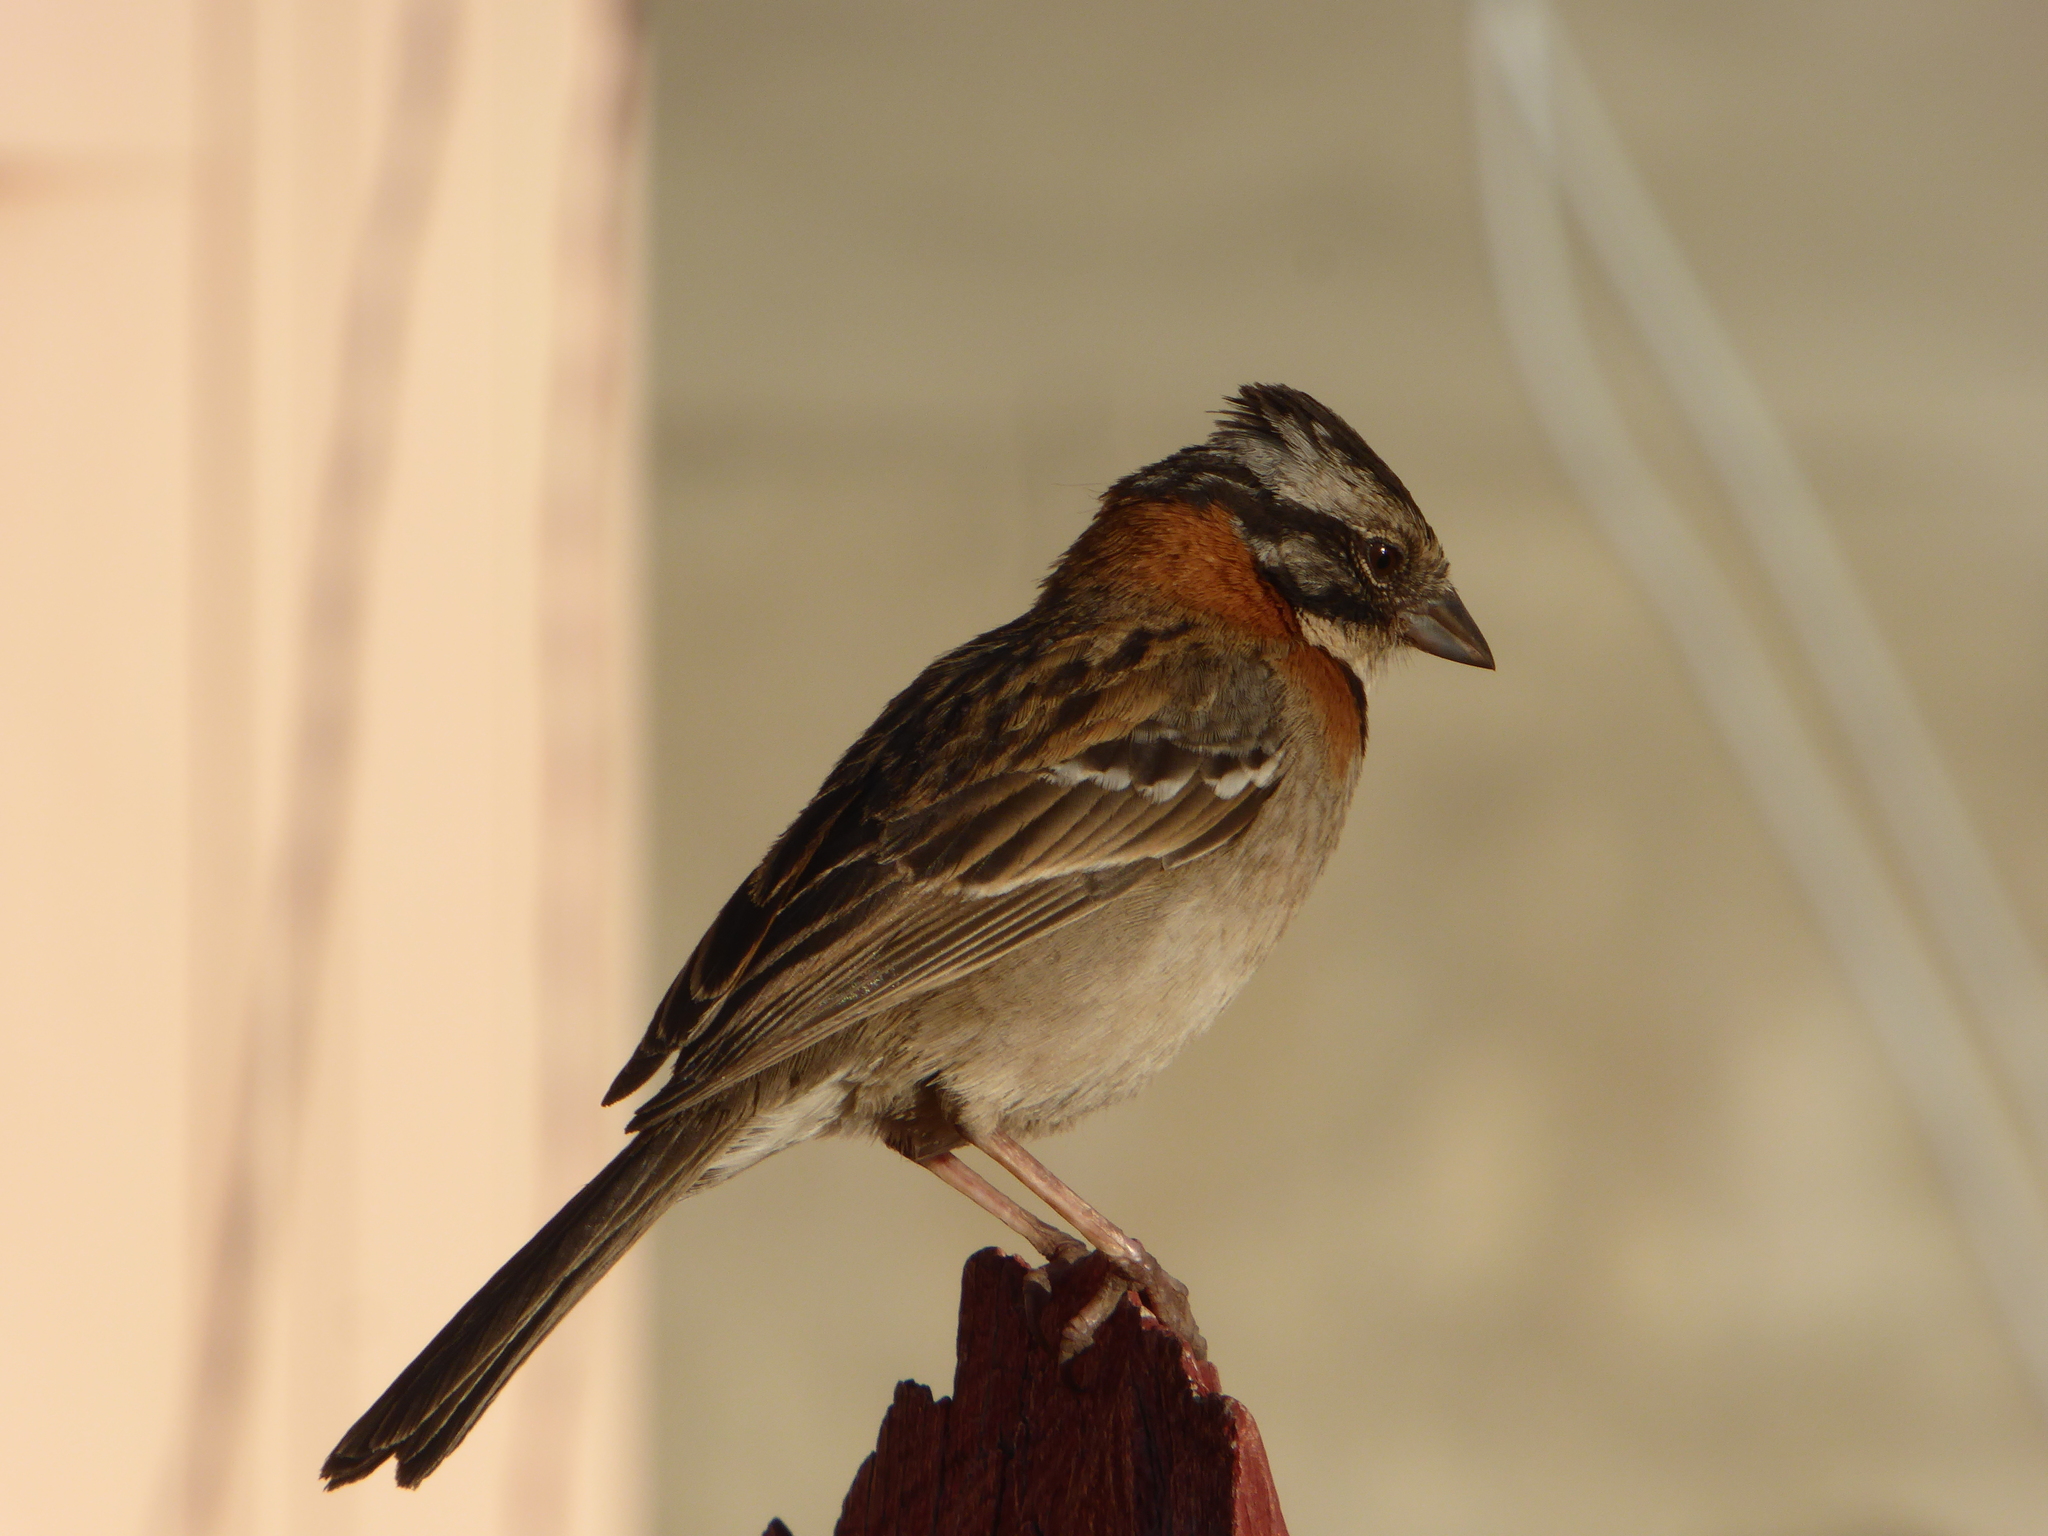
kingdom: Animalia
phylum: Chordata
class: Aves
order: Passeriformes
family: Passerellidae
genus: Zonotrichia
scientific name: Zonotrichia capensis
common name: Rufous-collared sparrow
